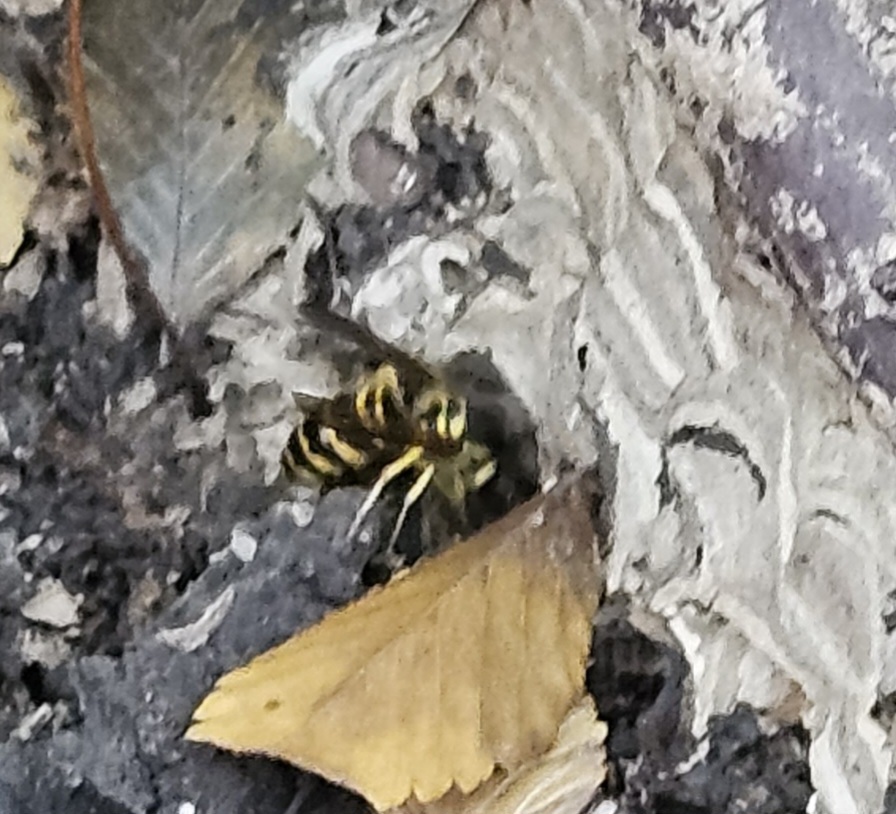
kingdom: Animalia
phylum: Arthropoda
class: Insecta
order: Hymenoptera
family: Vespidae
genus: Vespula
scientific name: Vespula maculifrons
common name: Eastern yellowjacket
